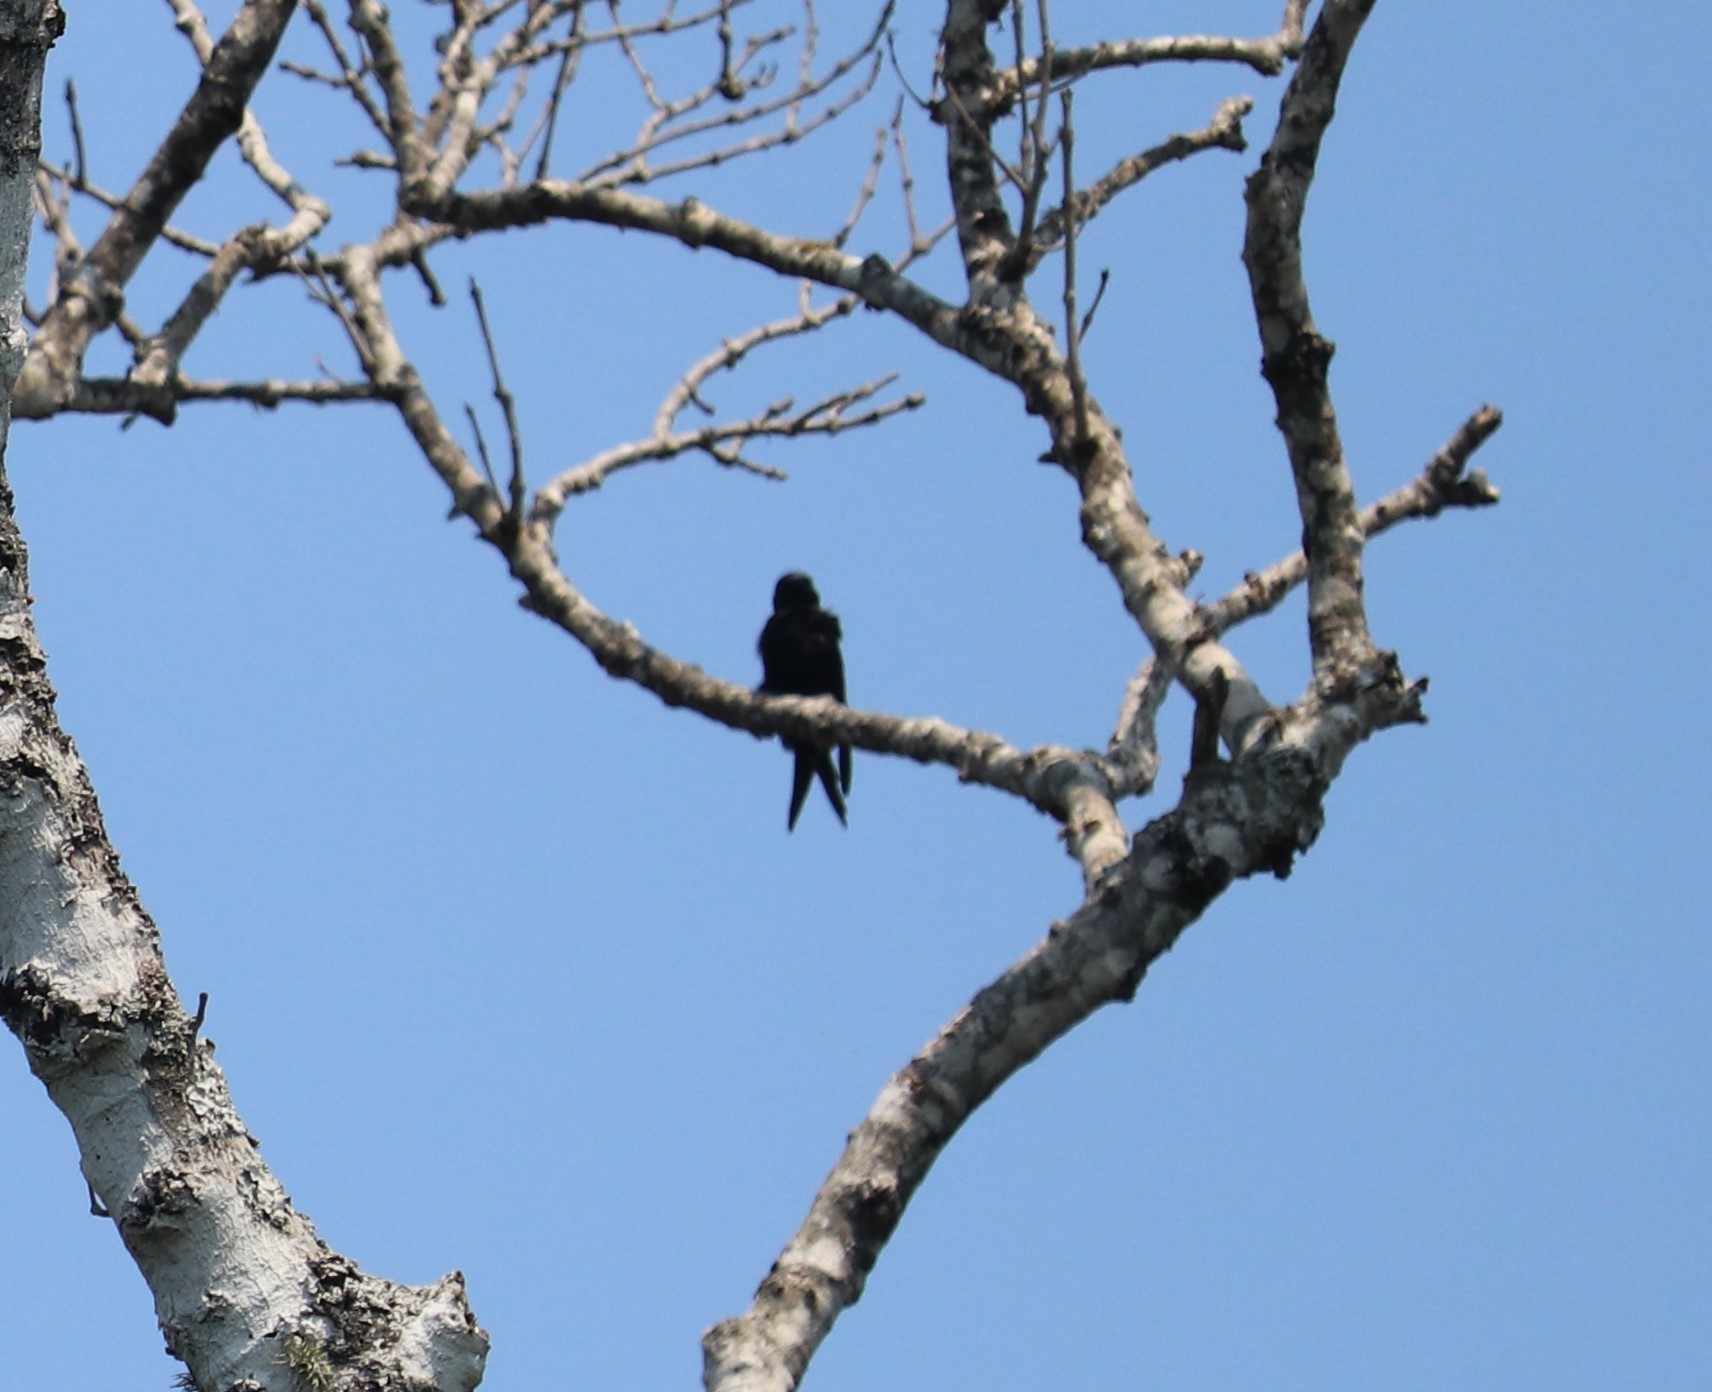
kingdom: Animalia
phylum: Chordata
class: Aves
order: Passeriformes
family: Hirundinidae
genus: Psalidoprocne
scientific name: Psalidoprocne pristoptera
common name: Black saw-wing
